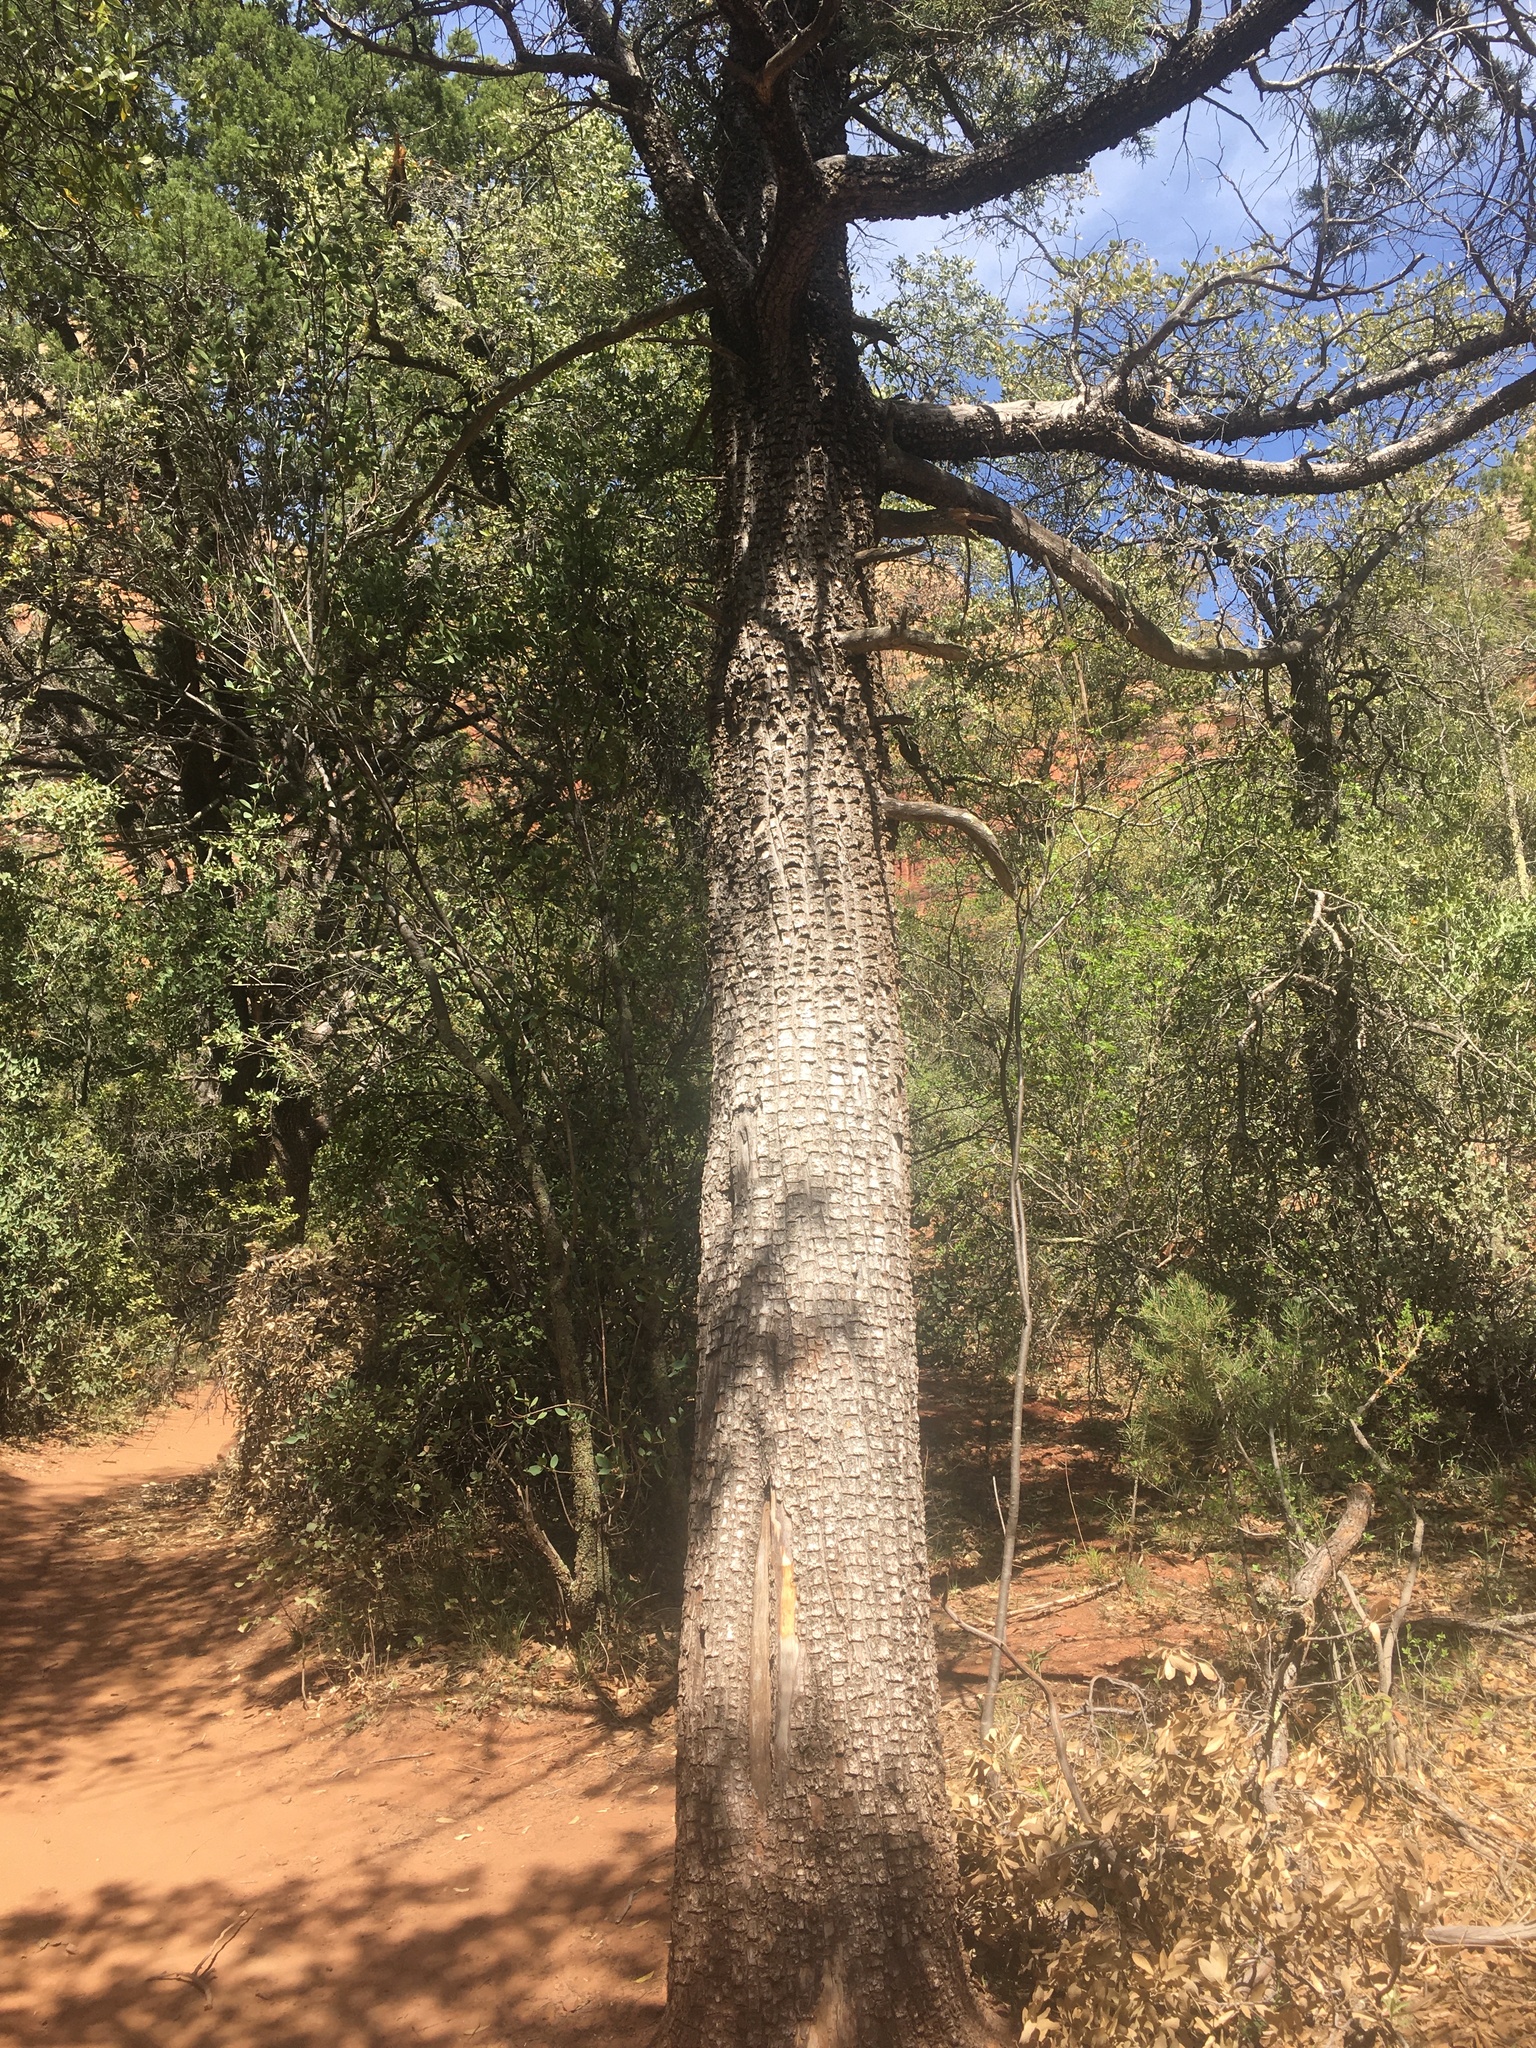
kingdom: Plantae
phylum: Tracheophyta
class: Pinopsida
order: Pinales
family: Cupressaceae
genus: Juniperus
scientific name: Juniperus deppeana
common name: Alligator juniper
